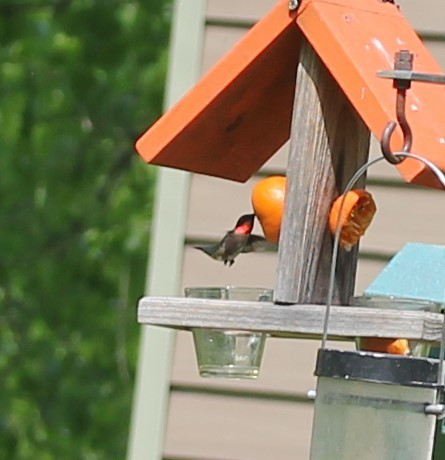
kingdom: Animalia
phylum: Chordata
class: Aves
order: Apodiformes
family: Trochilidae
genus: Archilochus
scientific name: Archilochus colubris
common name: Ruby-throated hummingbird
